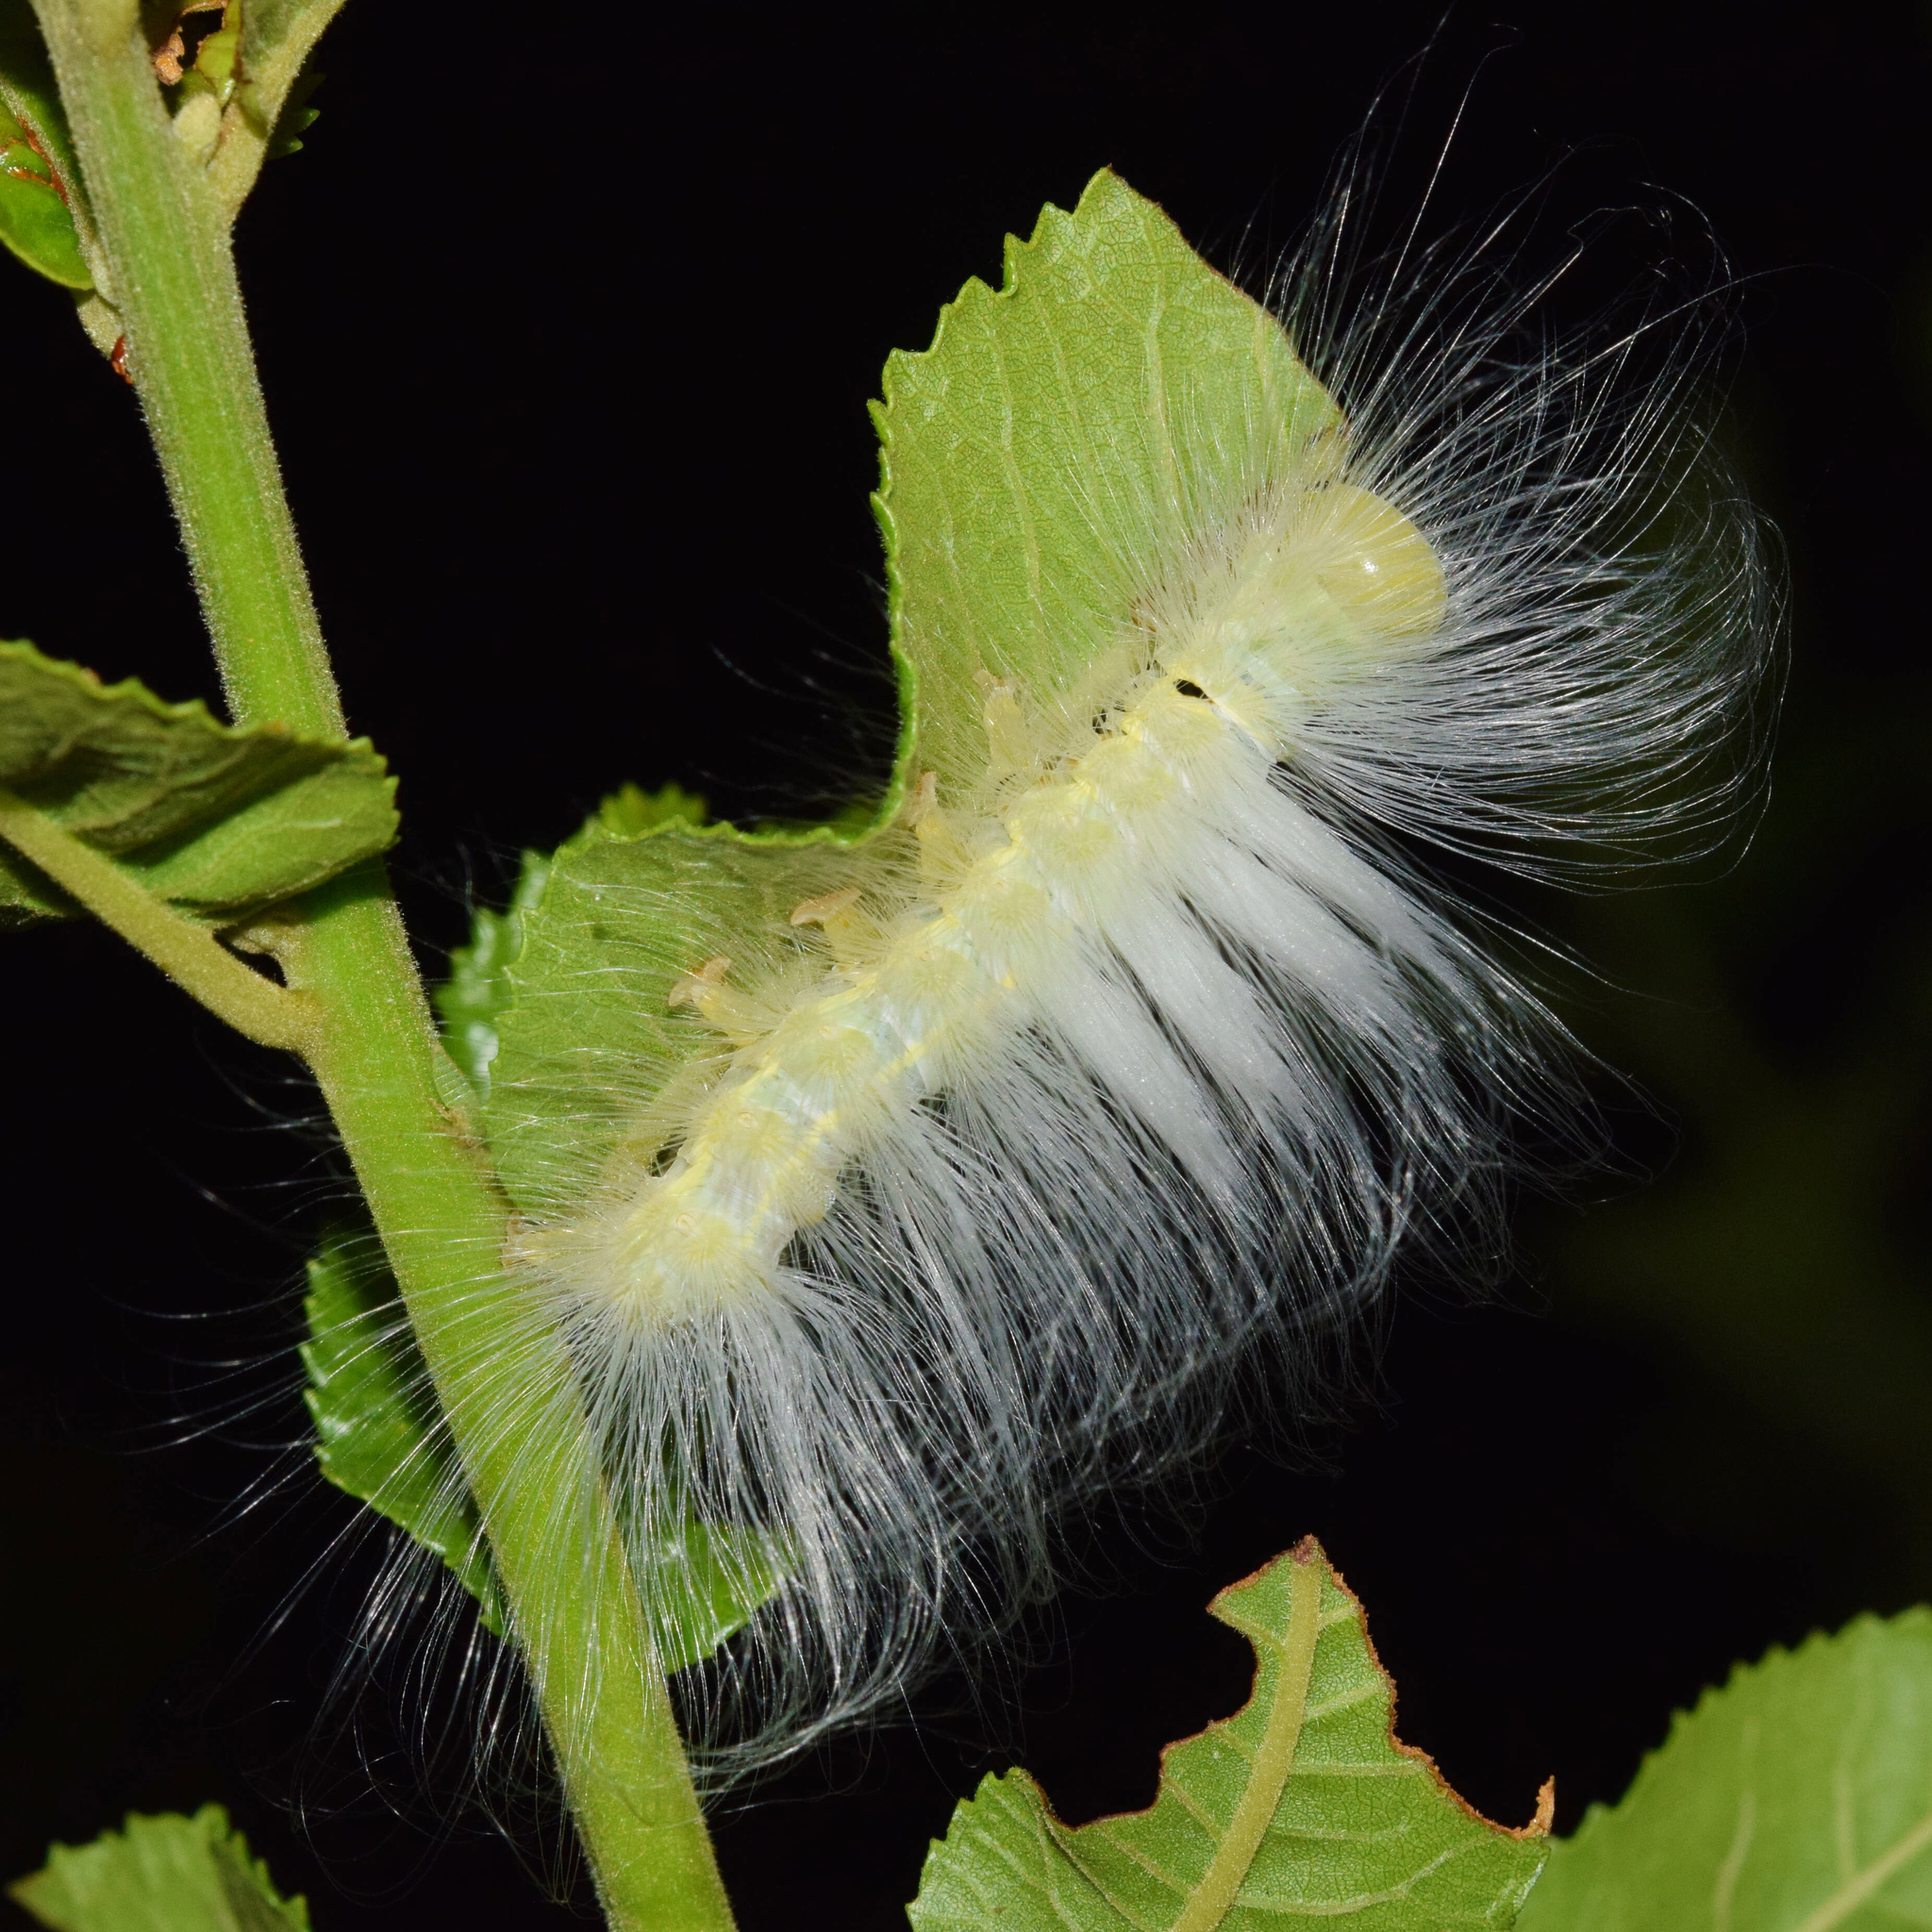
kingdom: Animalia
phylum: Arthropoda
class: Insecta
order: Lepidoptera
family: Erebidae
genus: Dasychira
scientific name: Dasychira georgiana
